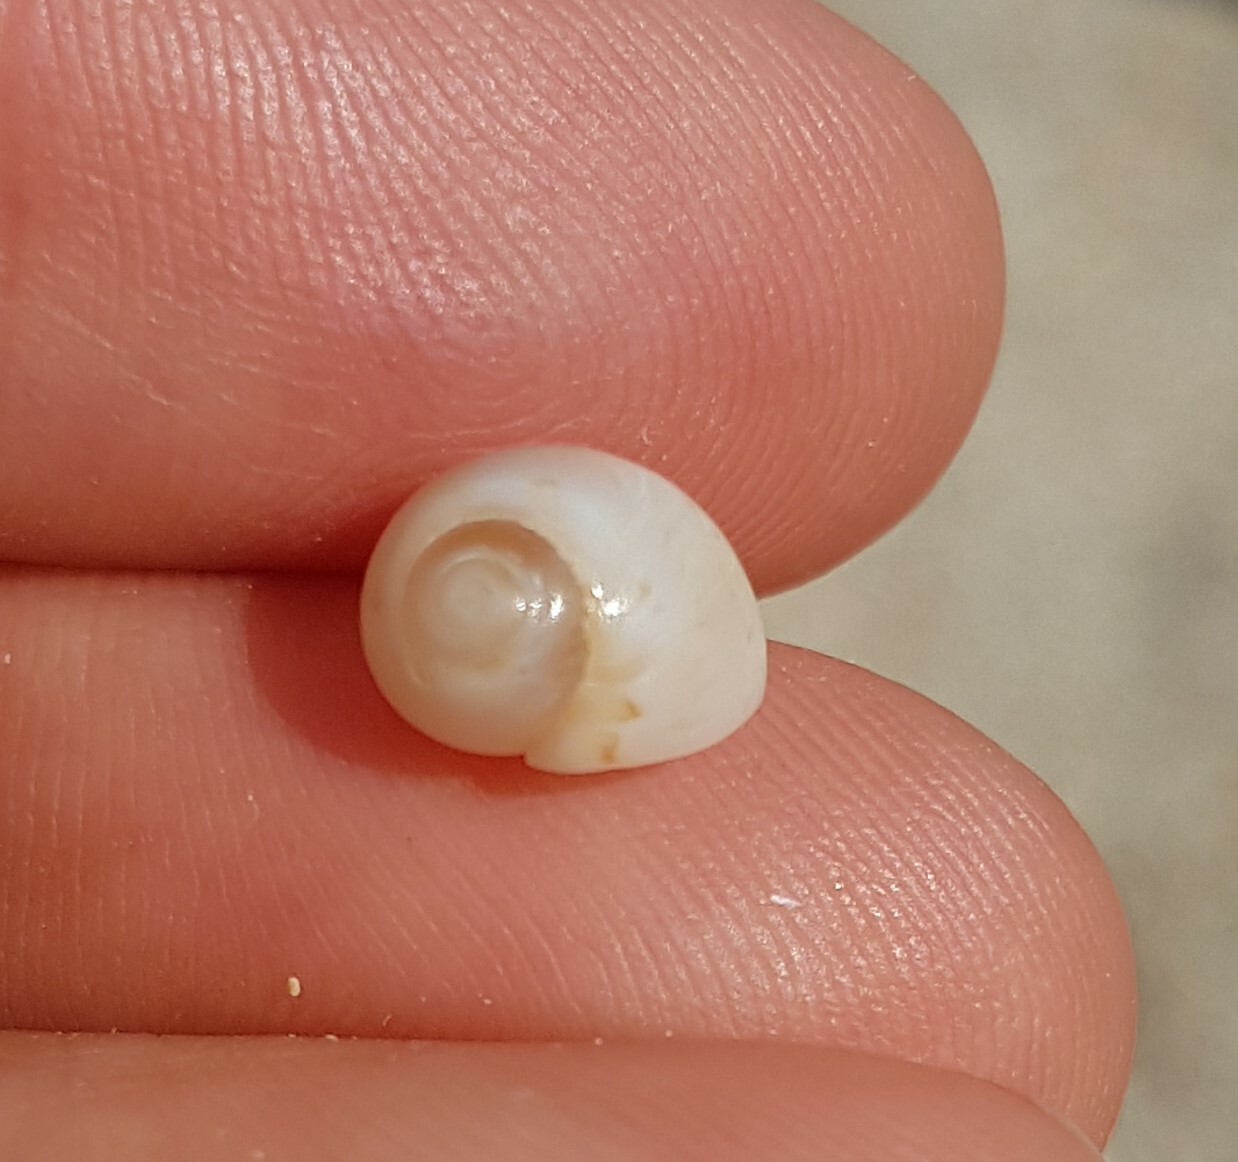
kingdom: Animalia
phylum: Mollusca
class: Gastropoda
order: Littorinimorpha
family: Naticidae
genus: Euspira
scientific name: Euspira nitida
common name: Alder's necklace shell
